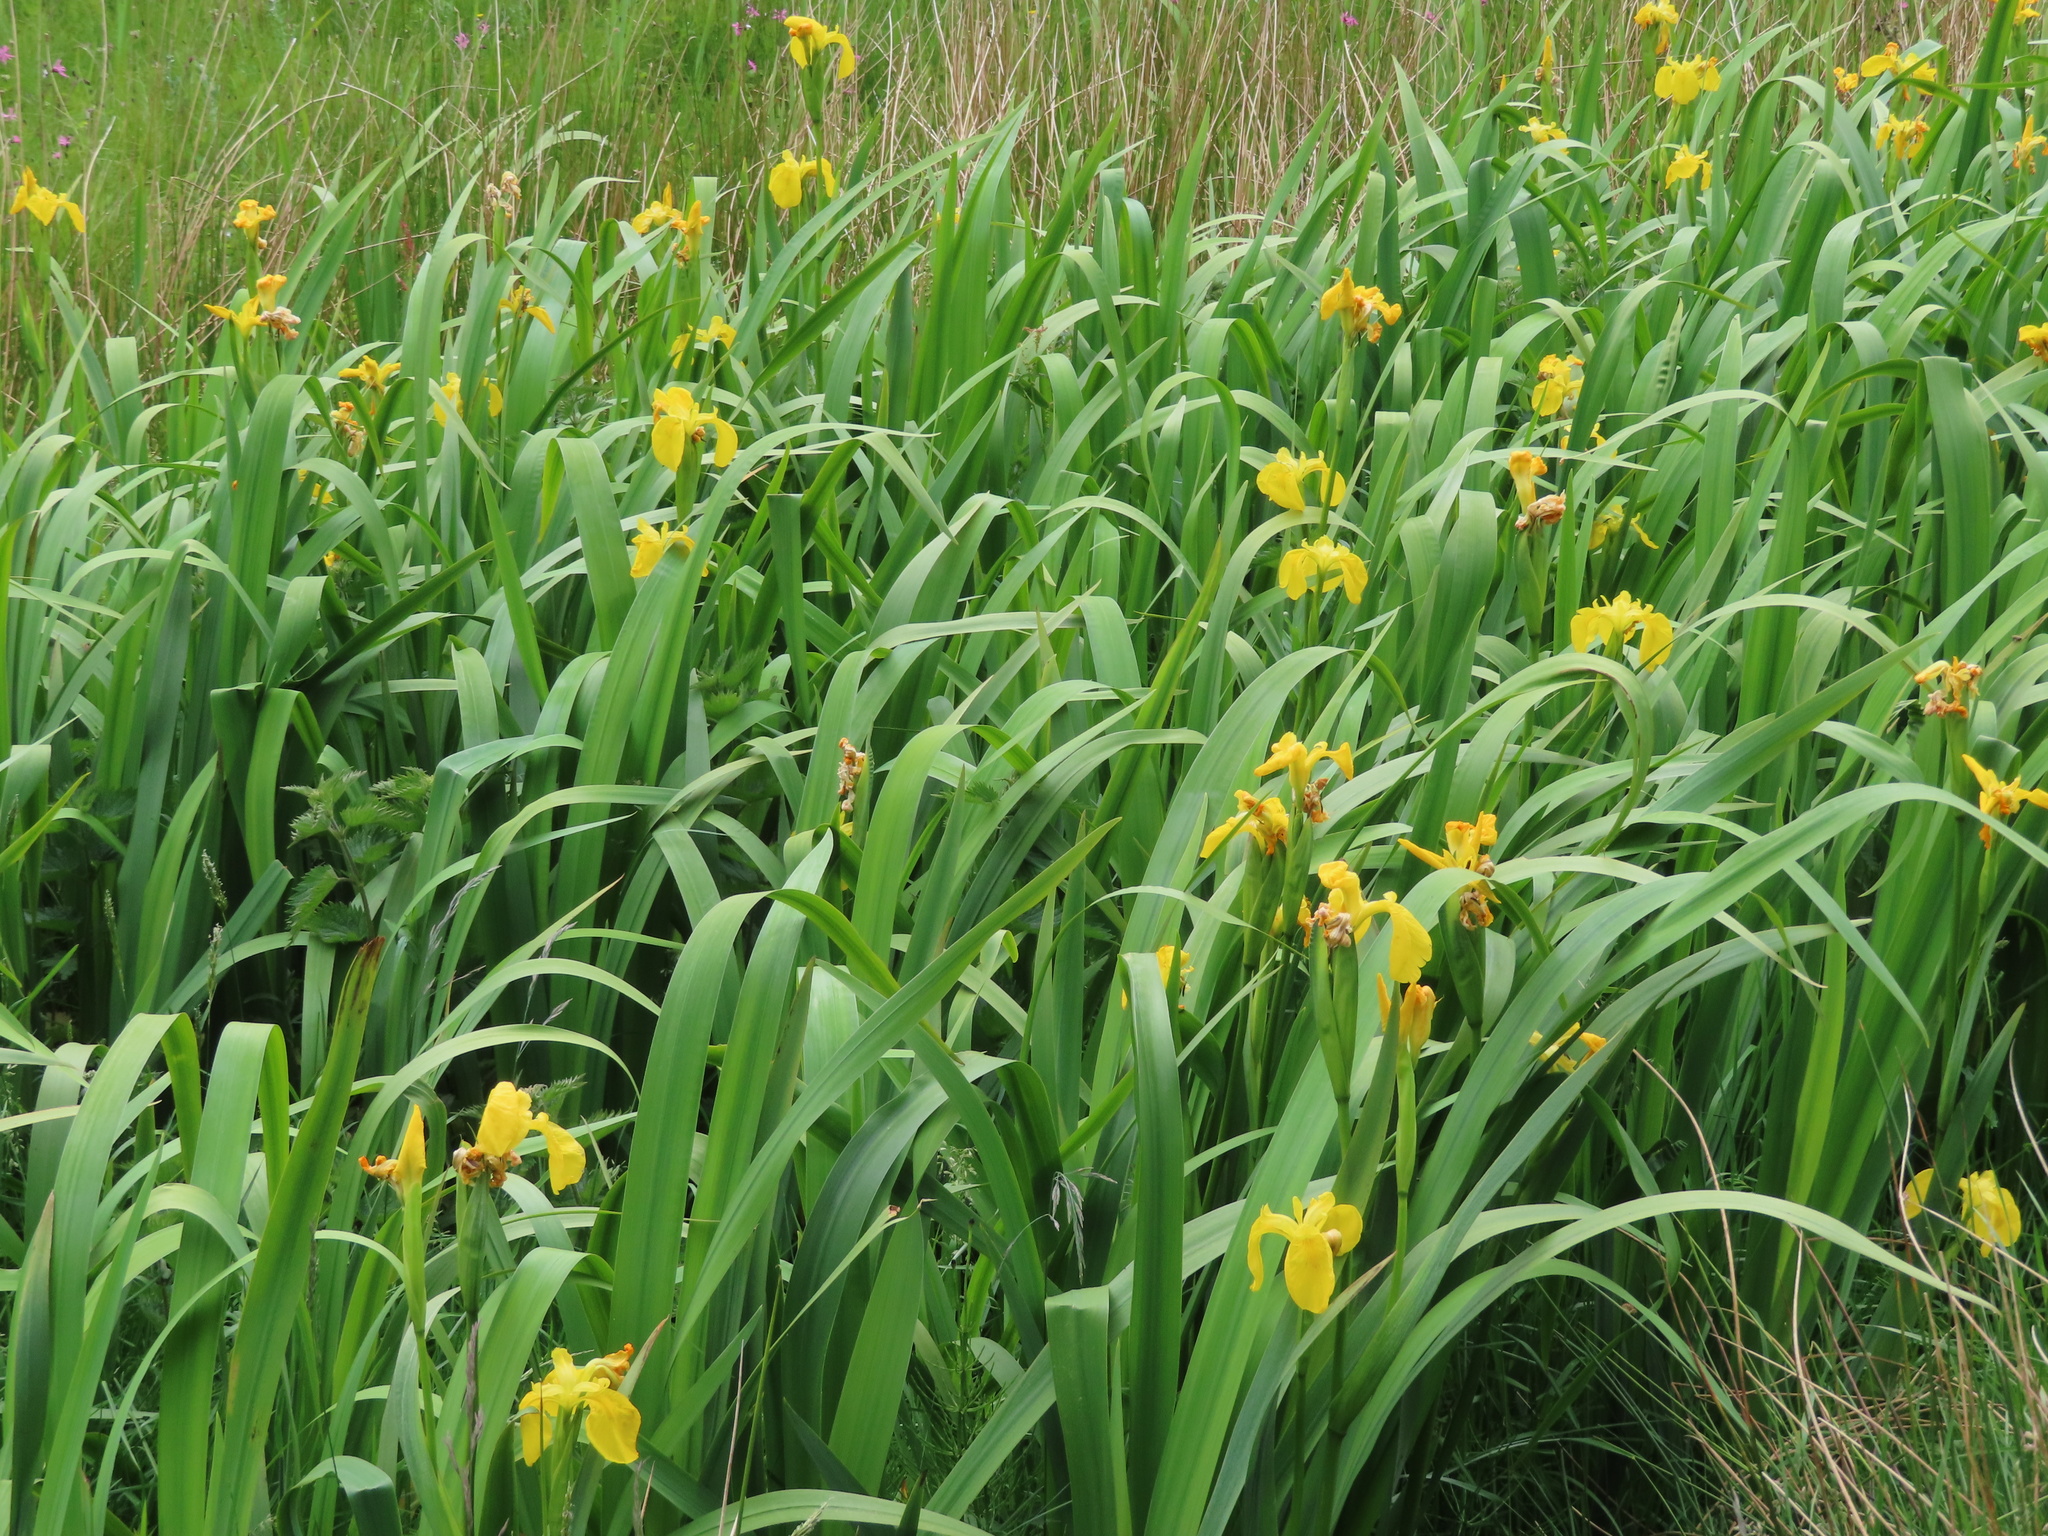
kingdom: Plantae
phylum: Tracheophyta
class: Liliopsida
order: Asparagales
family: Iridaceae
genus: Iris
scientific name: Iris pseudacorus
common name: Yellow flag
